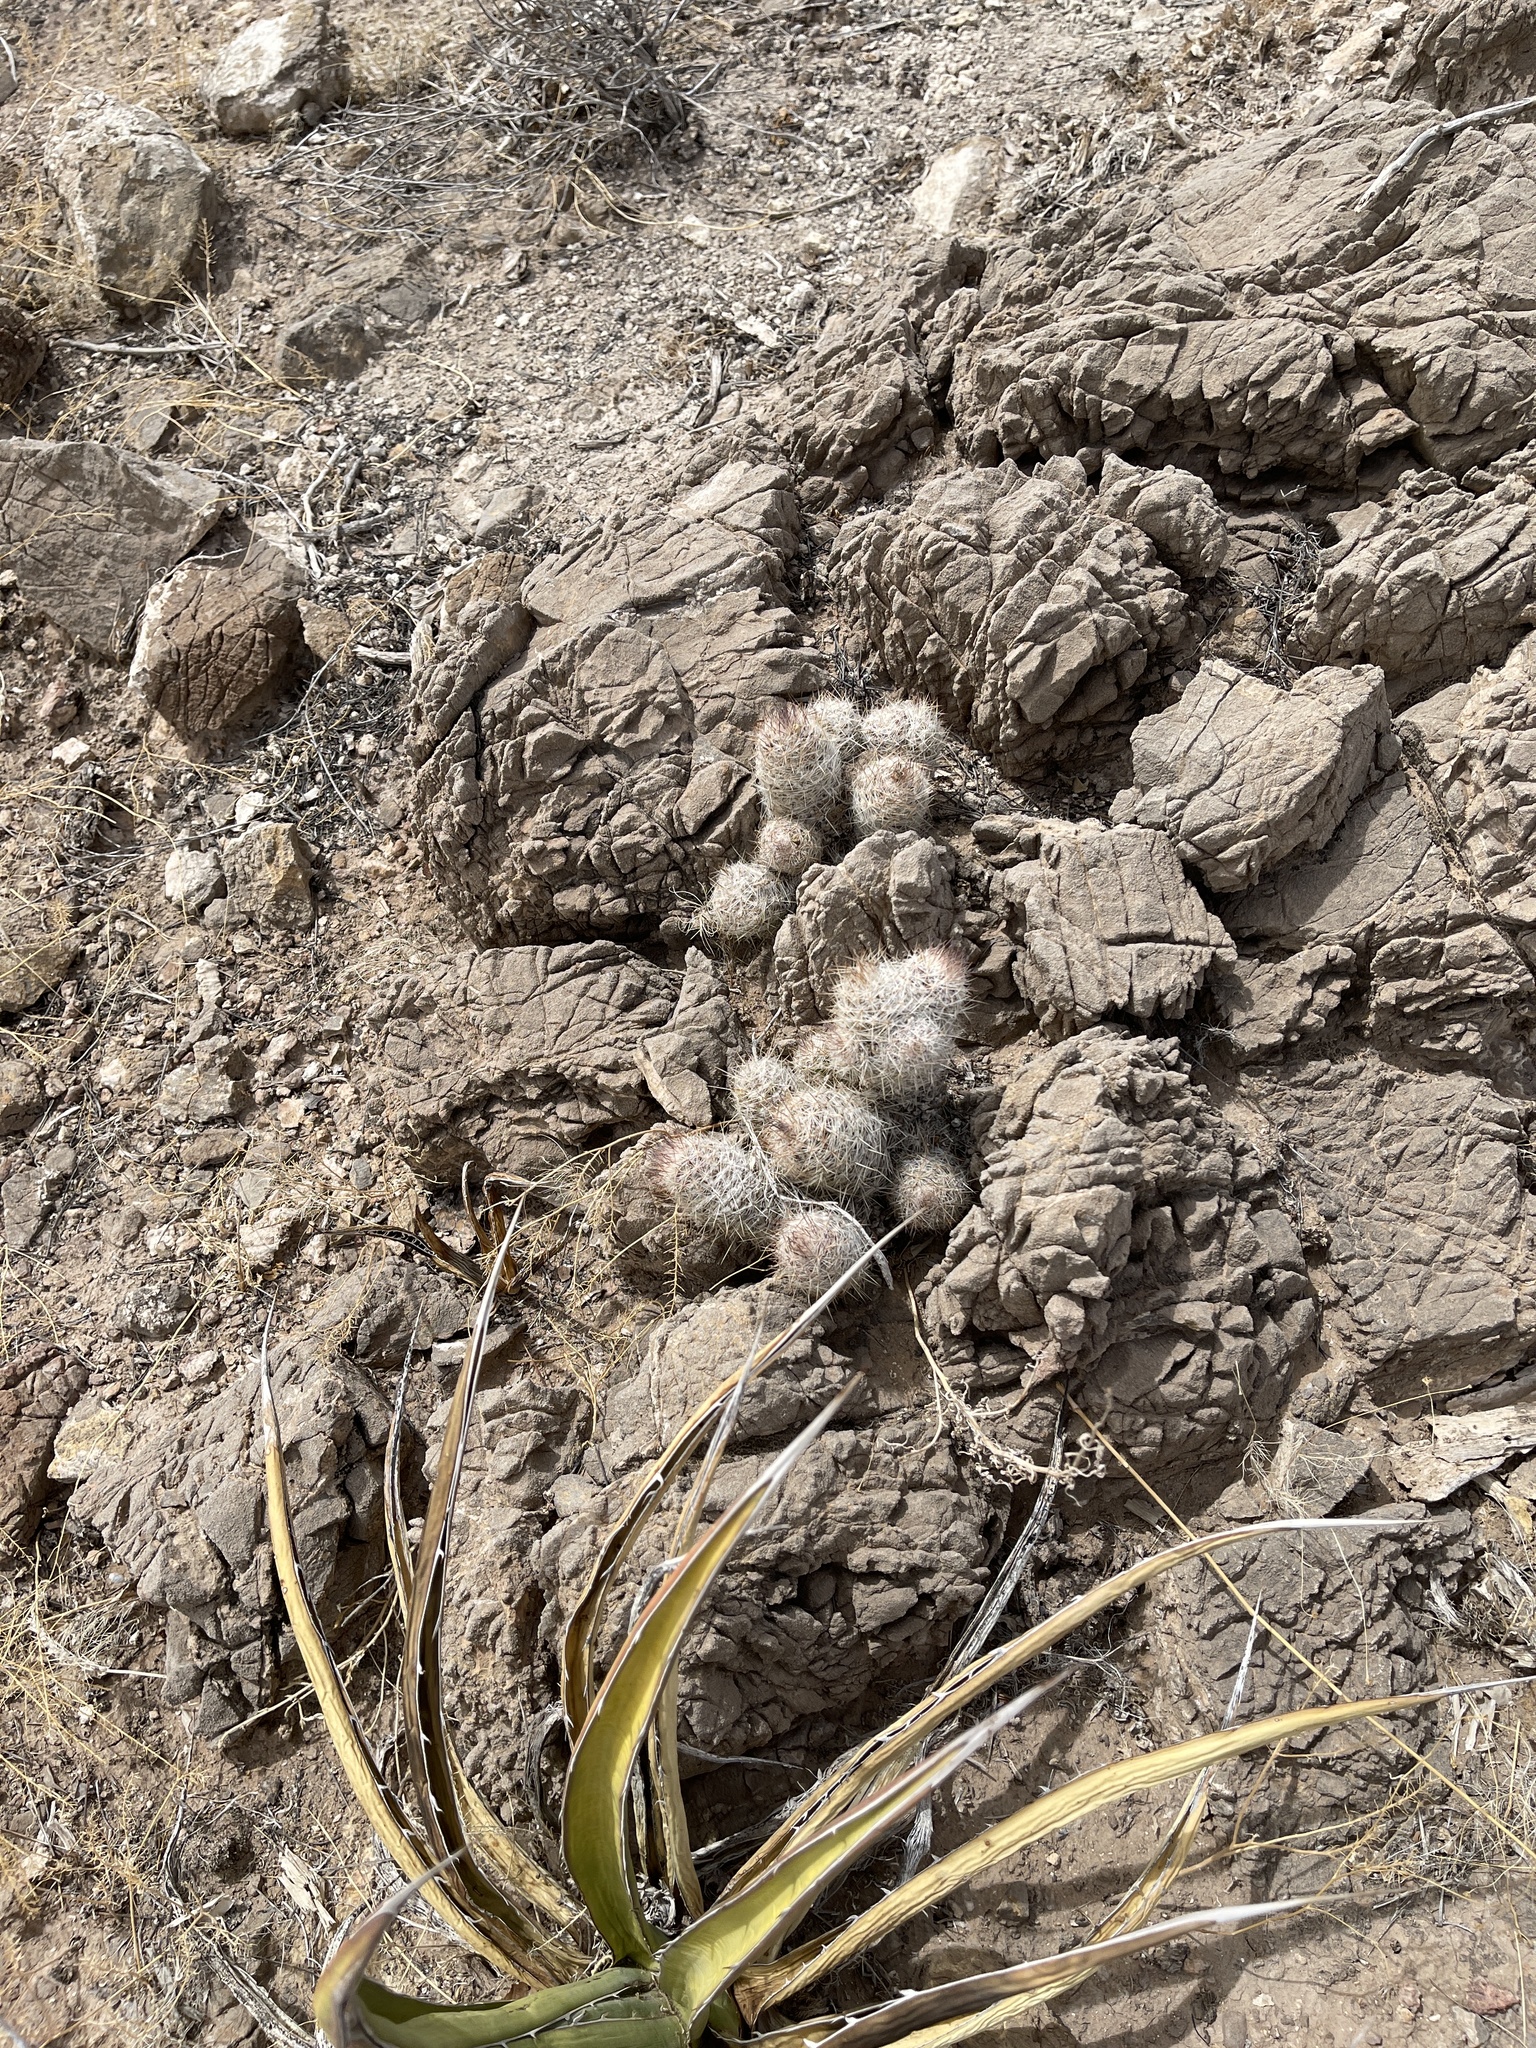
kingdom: Plantae
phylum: Tracheophyta
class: Magnoliopsida
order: Caryophyllales
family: Cactaceae
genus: Pelecyphora
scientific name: Pelecyphora tuberculosa
